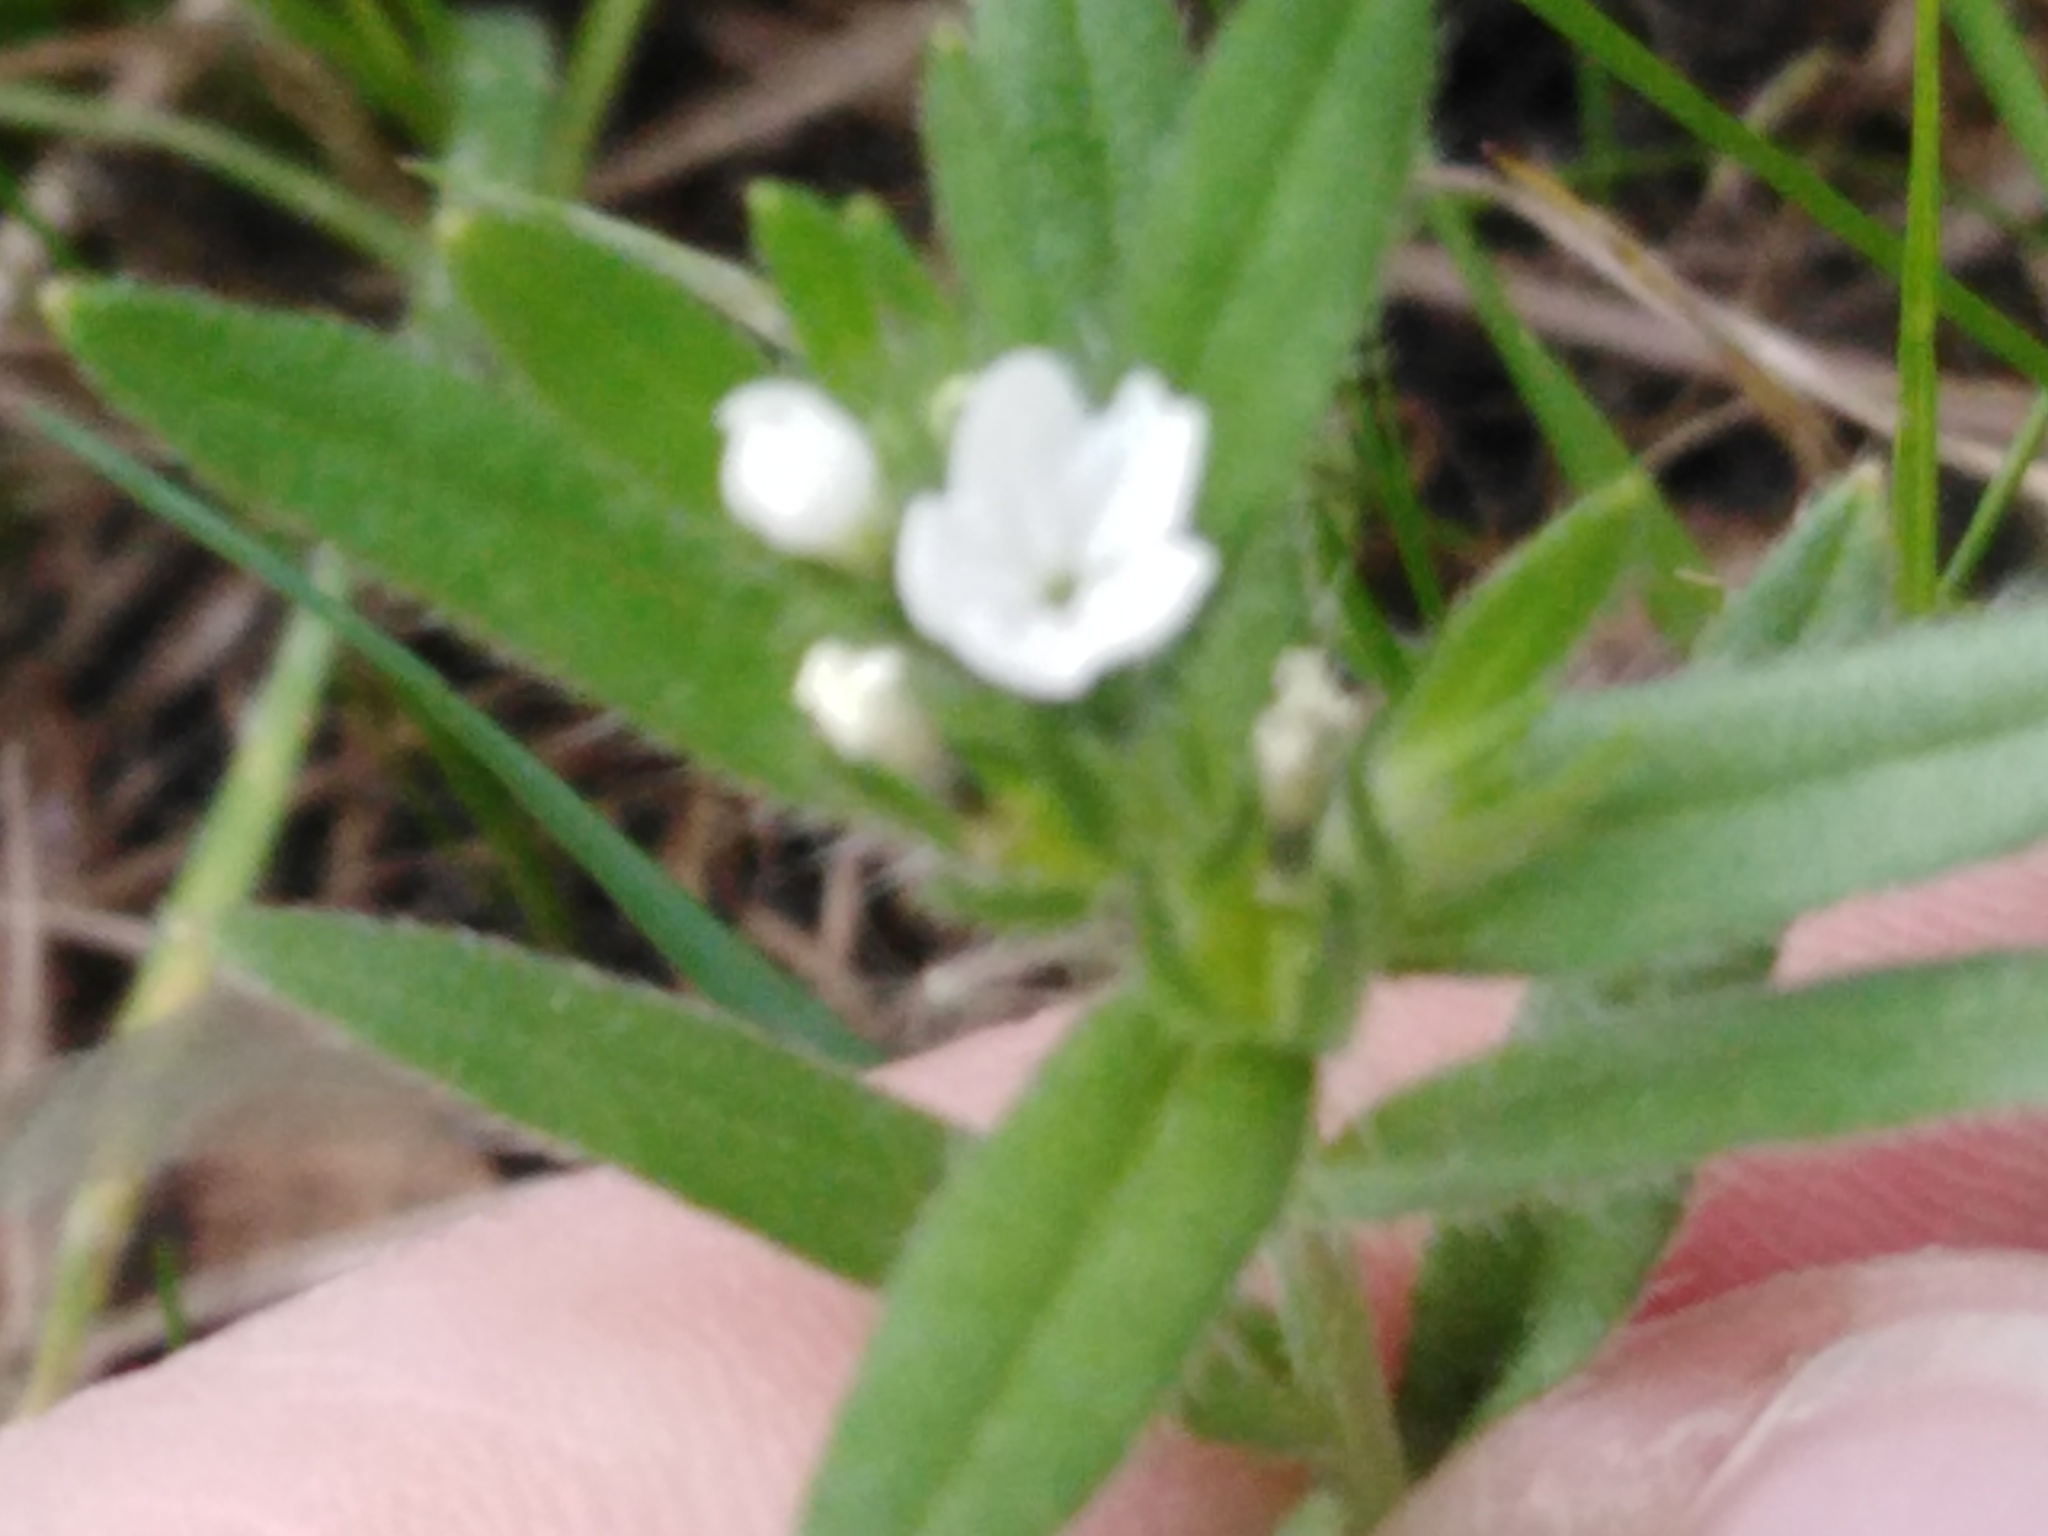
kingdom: Plantae
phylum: Tracheophyta
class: Magnoliopsida
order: Boraginales
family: Boraginaceae
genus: Buglossoides
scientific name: Buglossoides arvensis
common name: Corn gromwell
